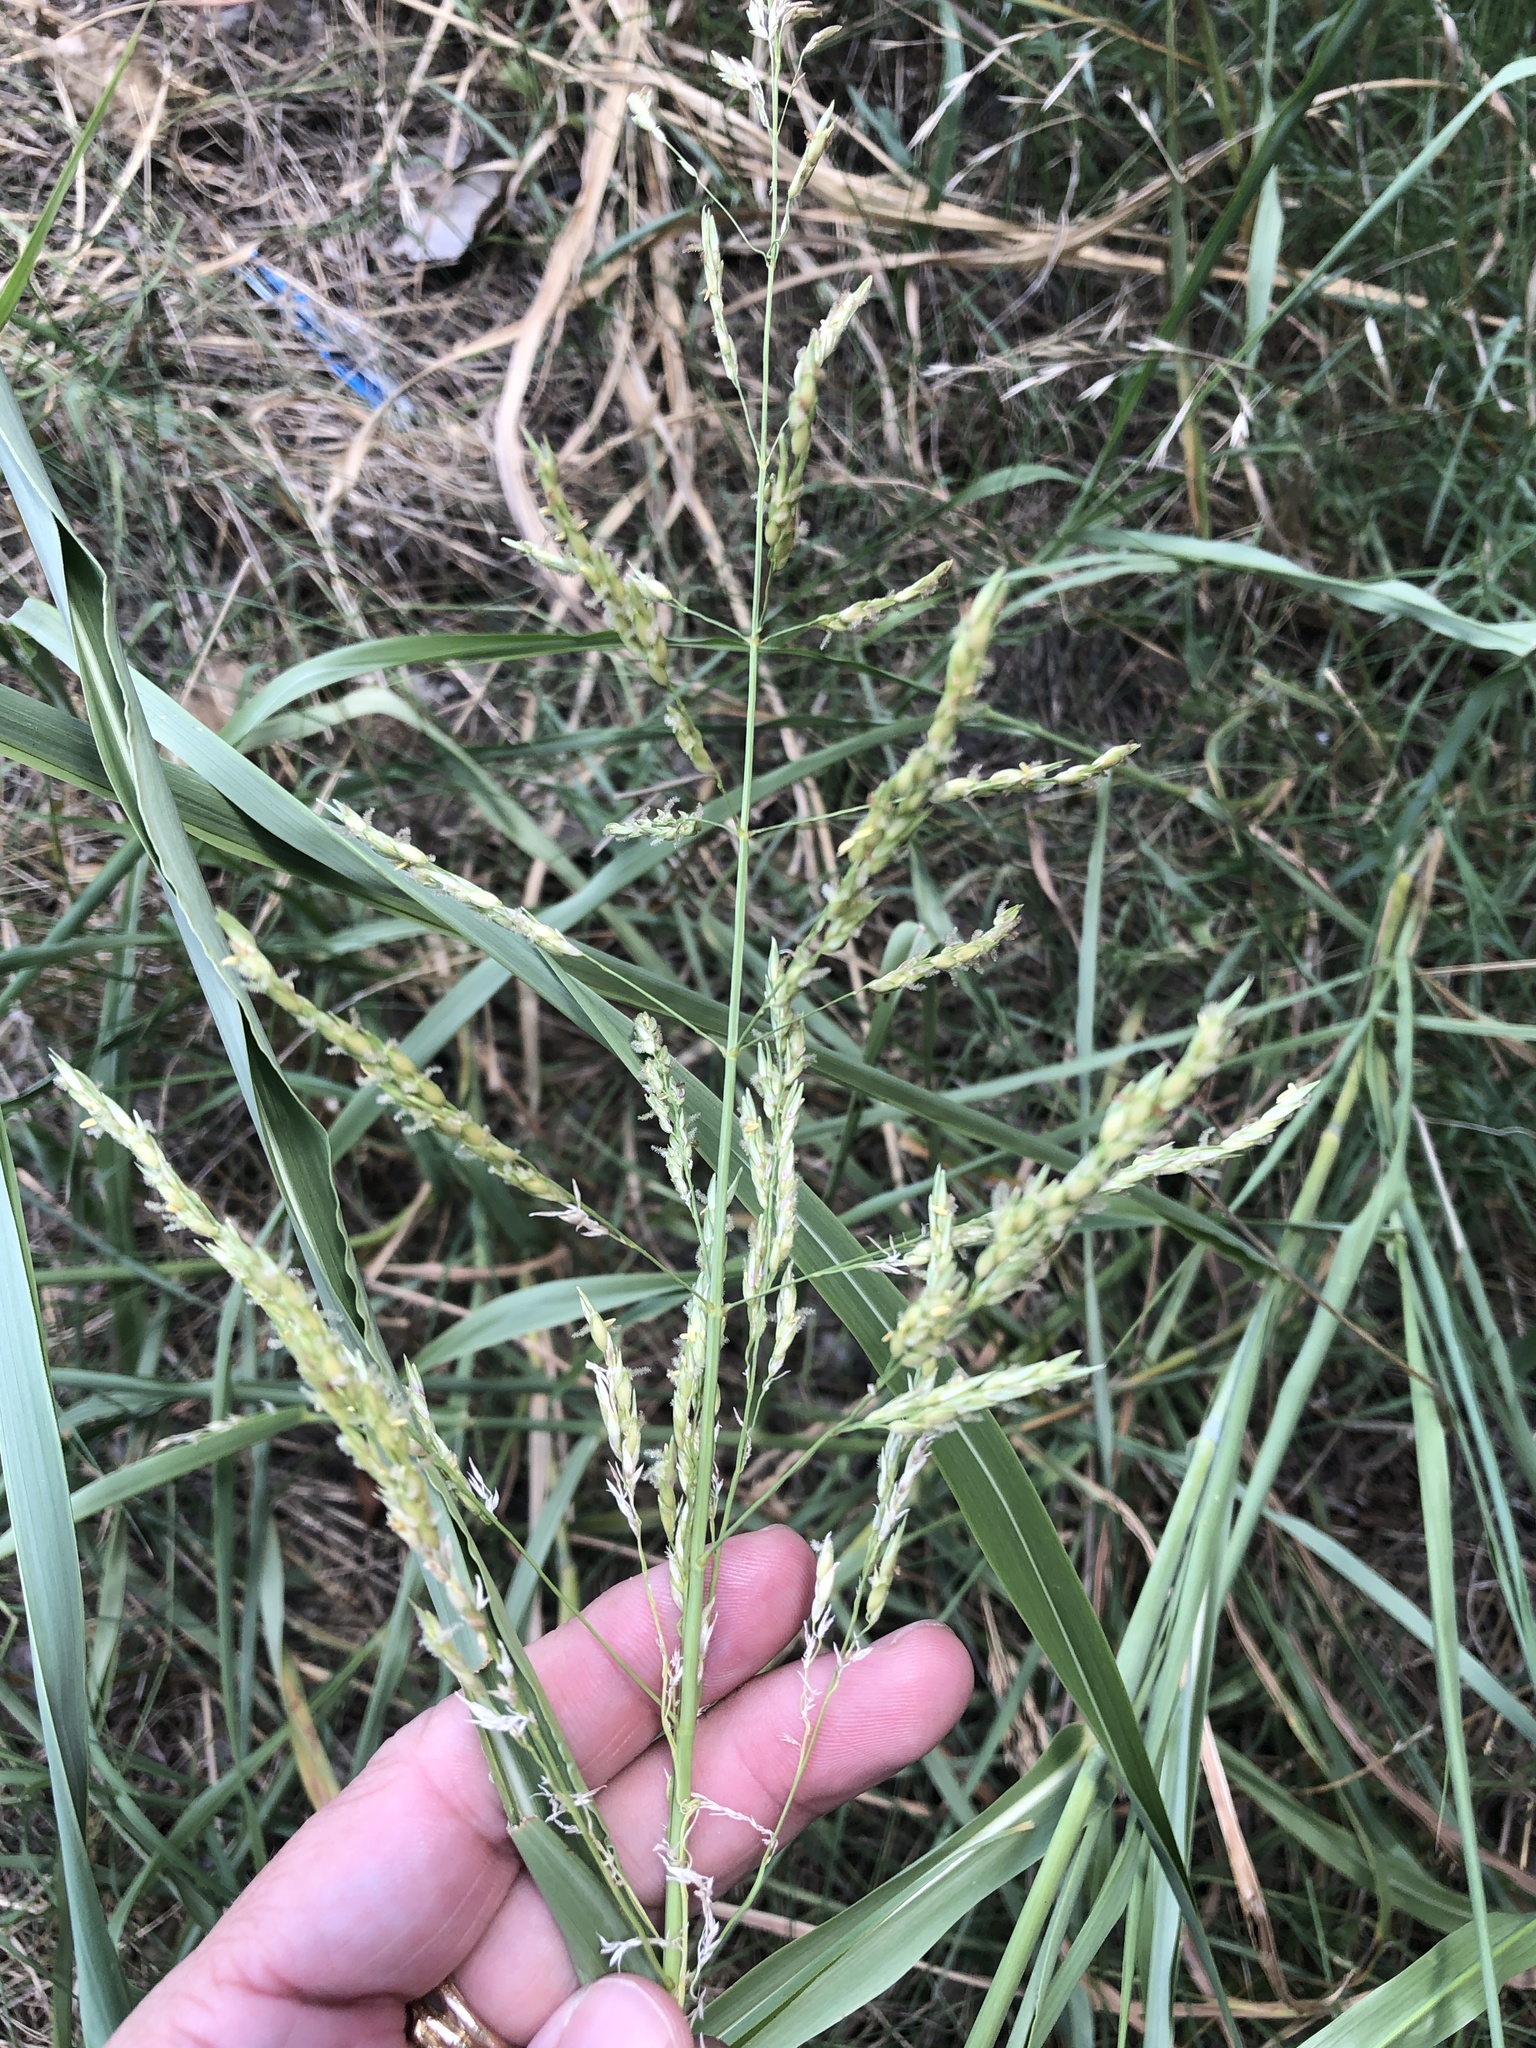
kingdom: Plantae
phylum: Tracheophyta
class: Liliopsida
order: Poales
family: Poaceae
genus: Sorghum
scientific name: Sorghum halepense
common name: Johnson-grass
